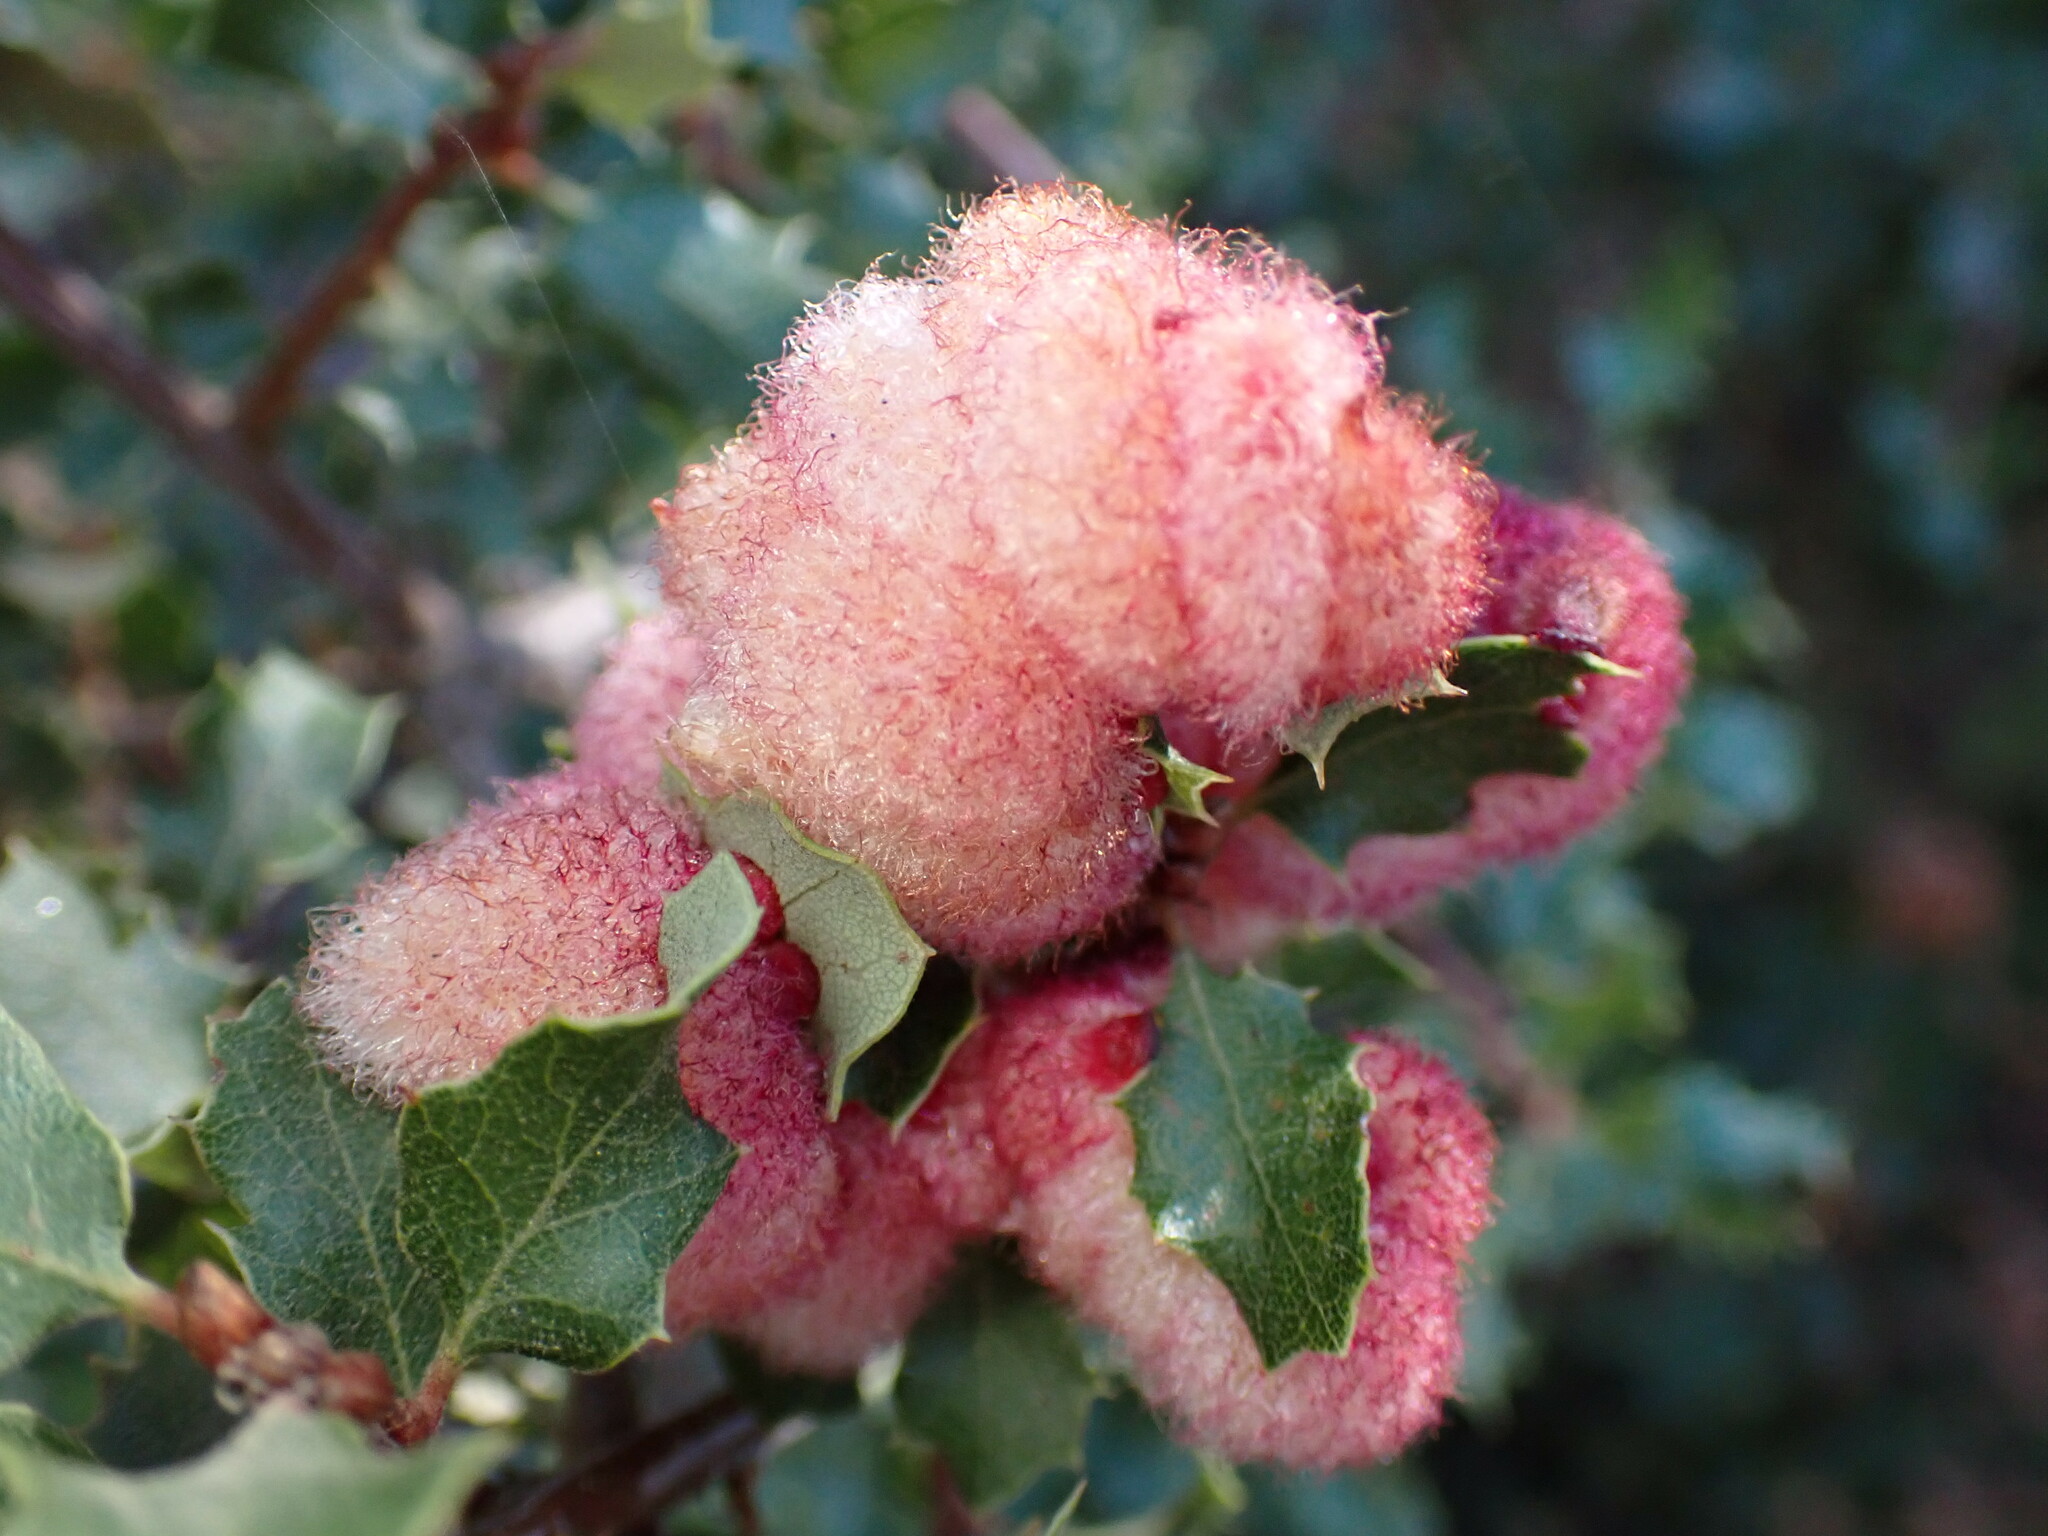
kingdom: Animalia
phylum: Arthropoda
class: Insecta
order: Hymenoptera
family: Cynipidae
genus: Andricus
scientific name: Andricus
